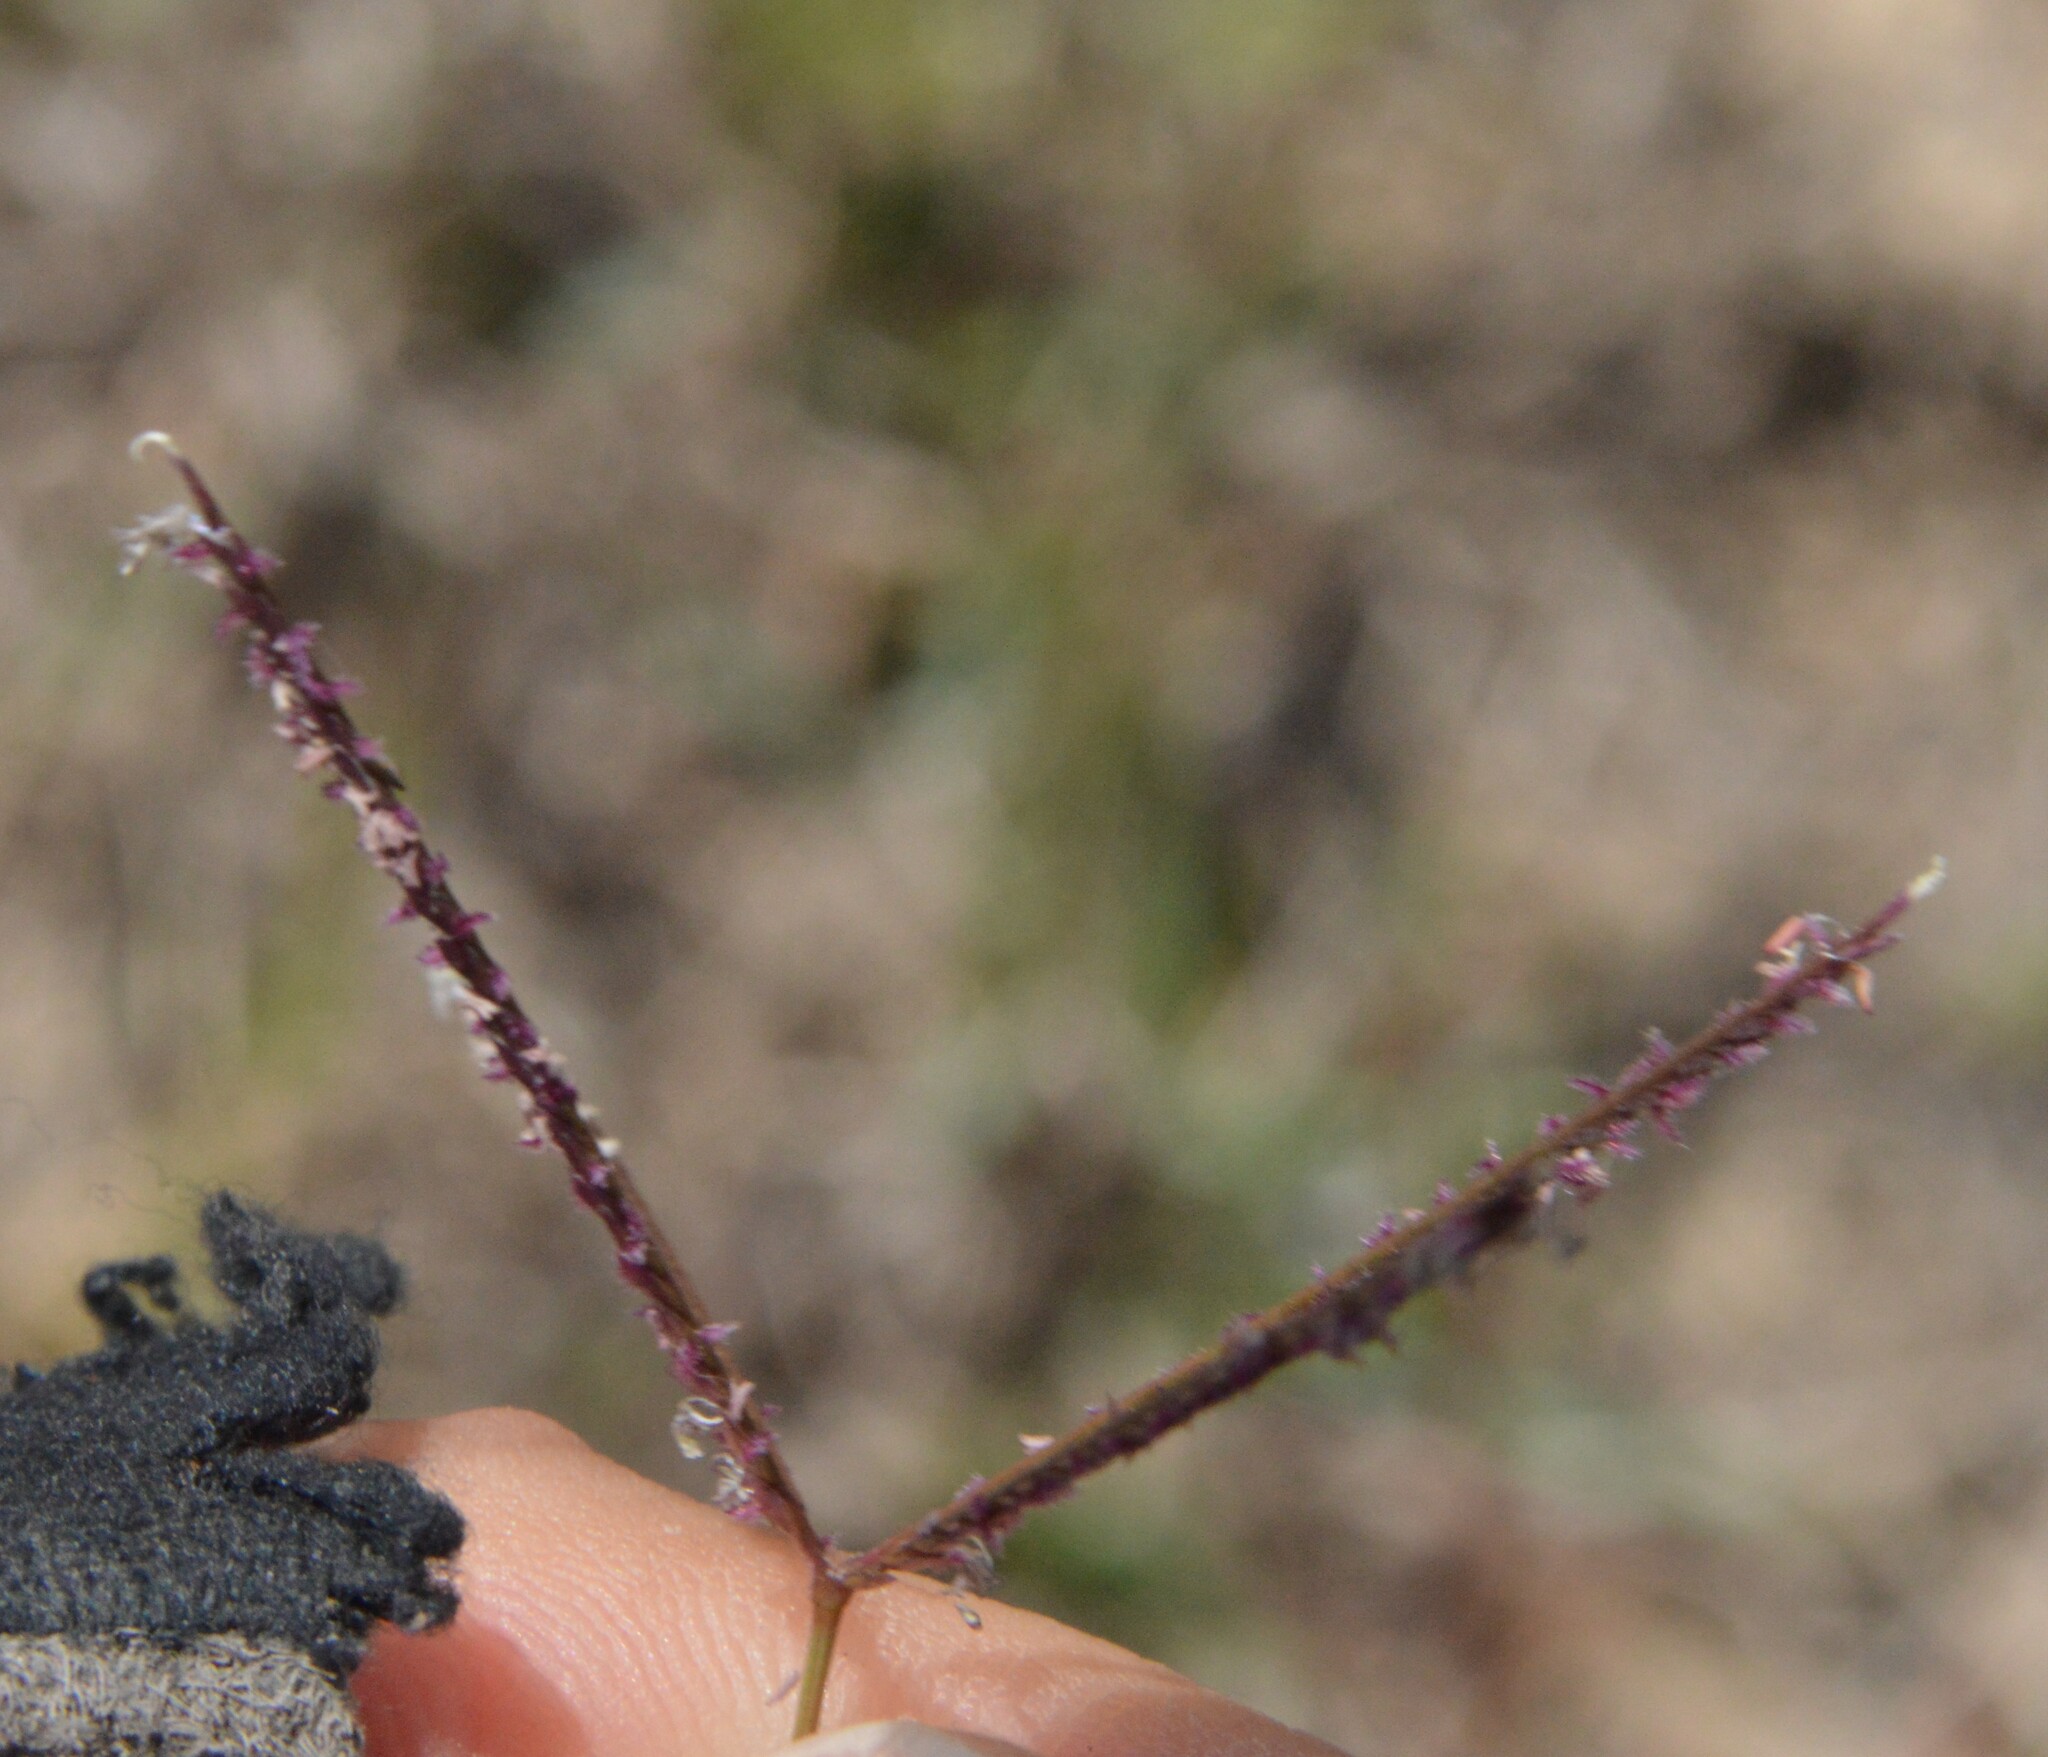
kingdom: Plantae
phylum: Tracheophyta
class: Liliopsida
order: Poales
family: Poaceae
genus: Cynodon
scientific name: Cynodon dactylon
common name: Bermuda grass
